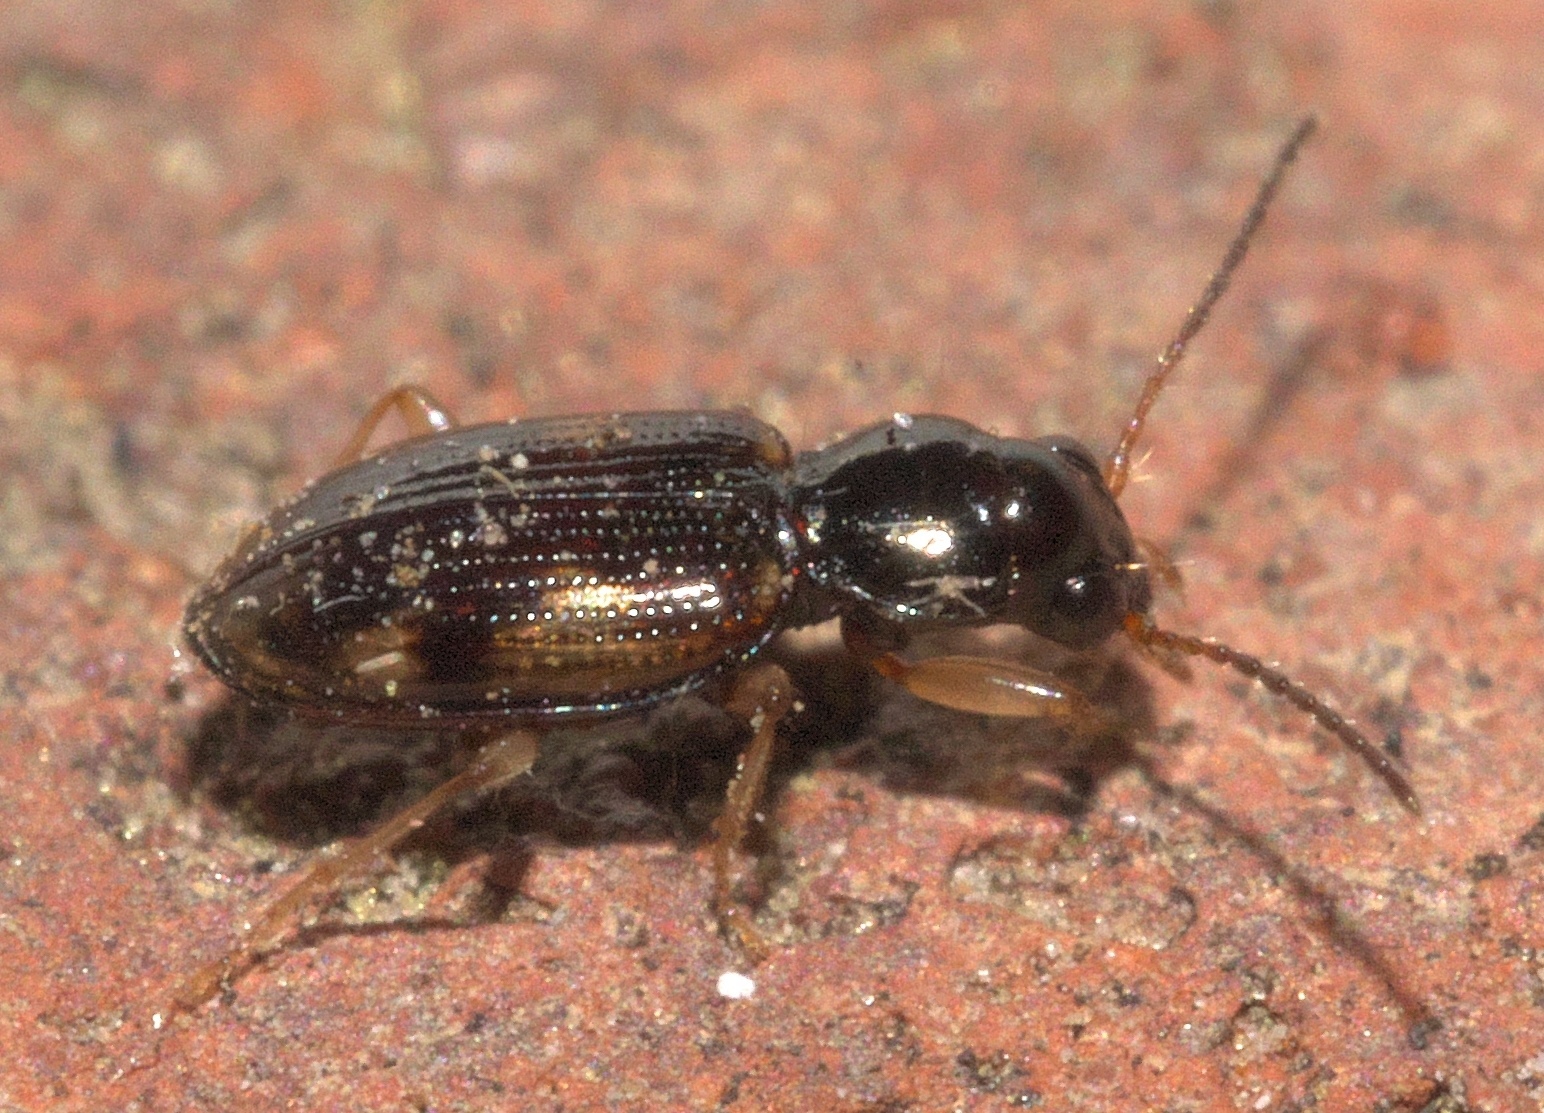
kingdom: Animalia
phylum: Arthropoda
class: Insecta
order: Coleoptera
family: Carabidae
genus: Bembidion
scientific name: Bembidion affine
